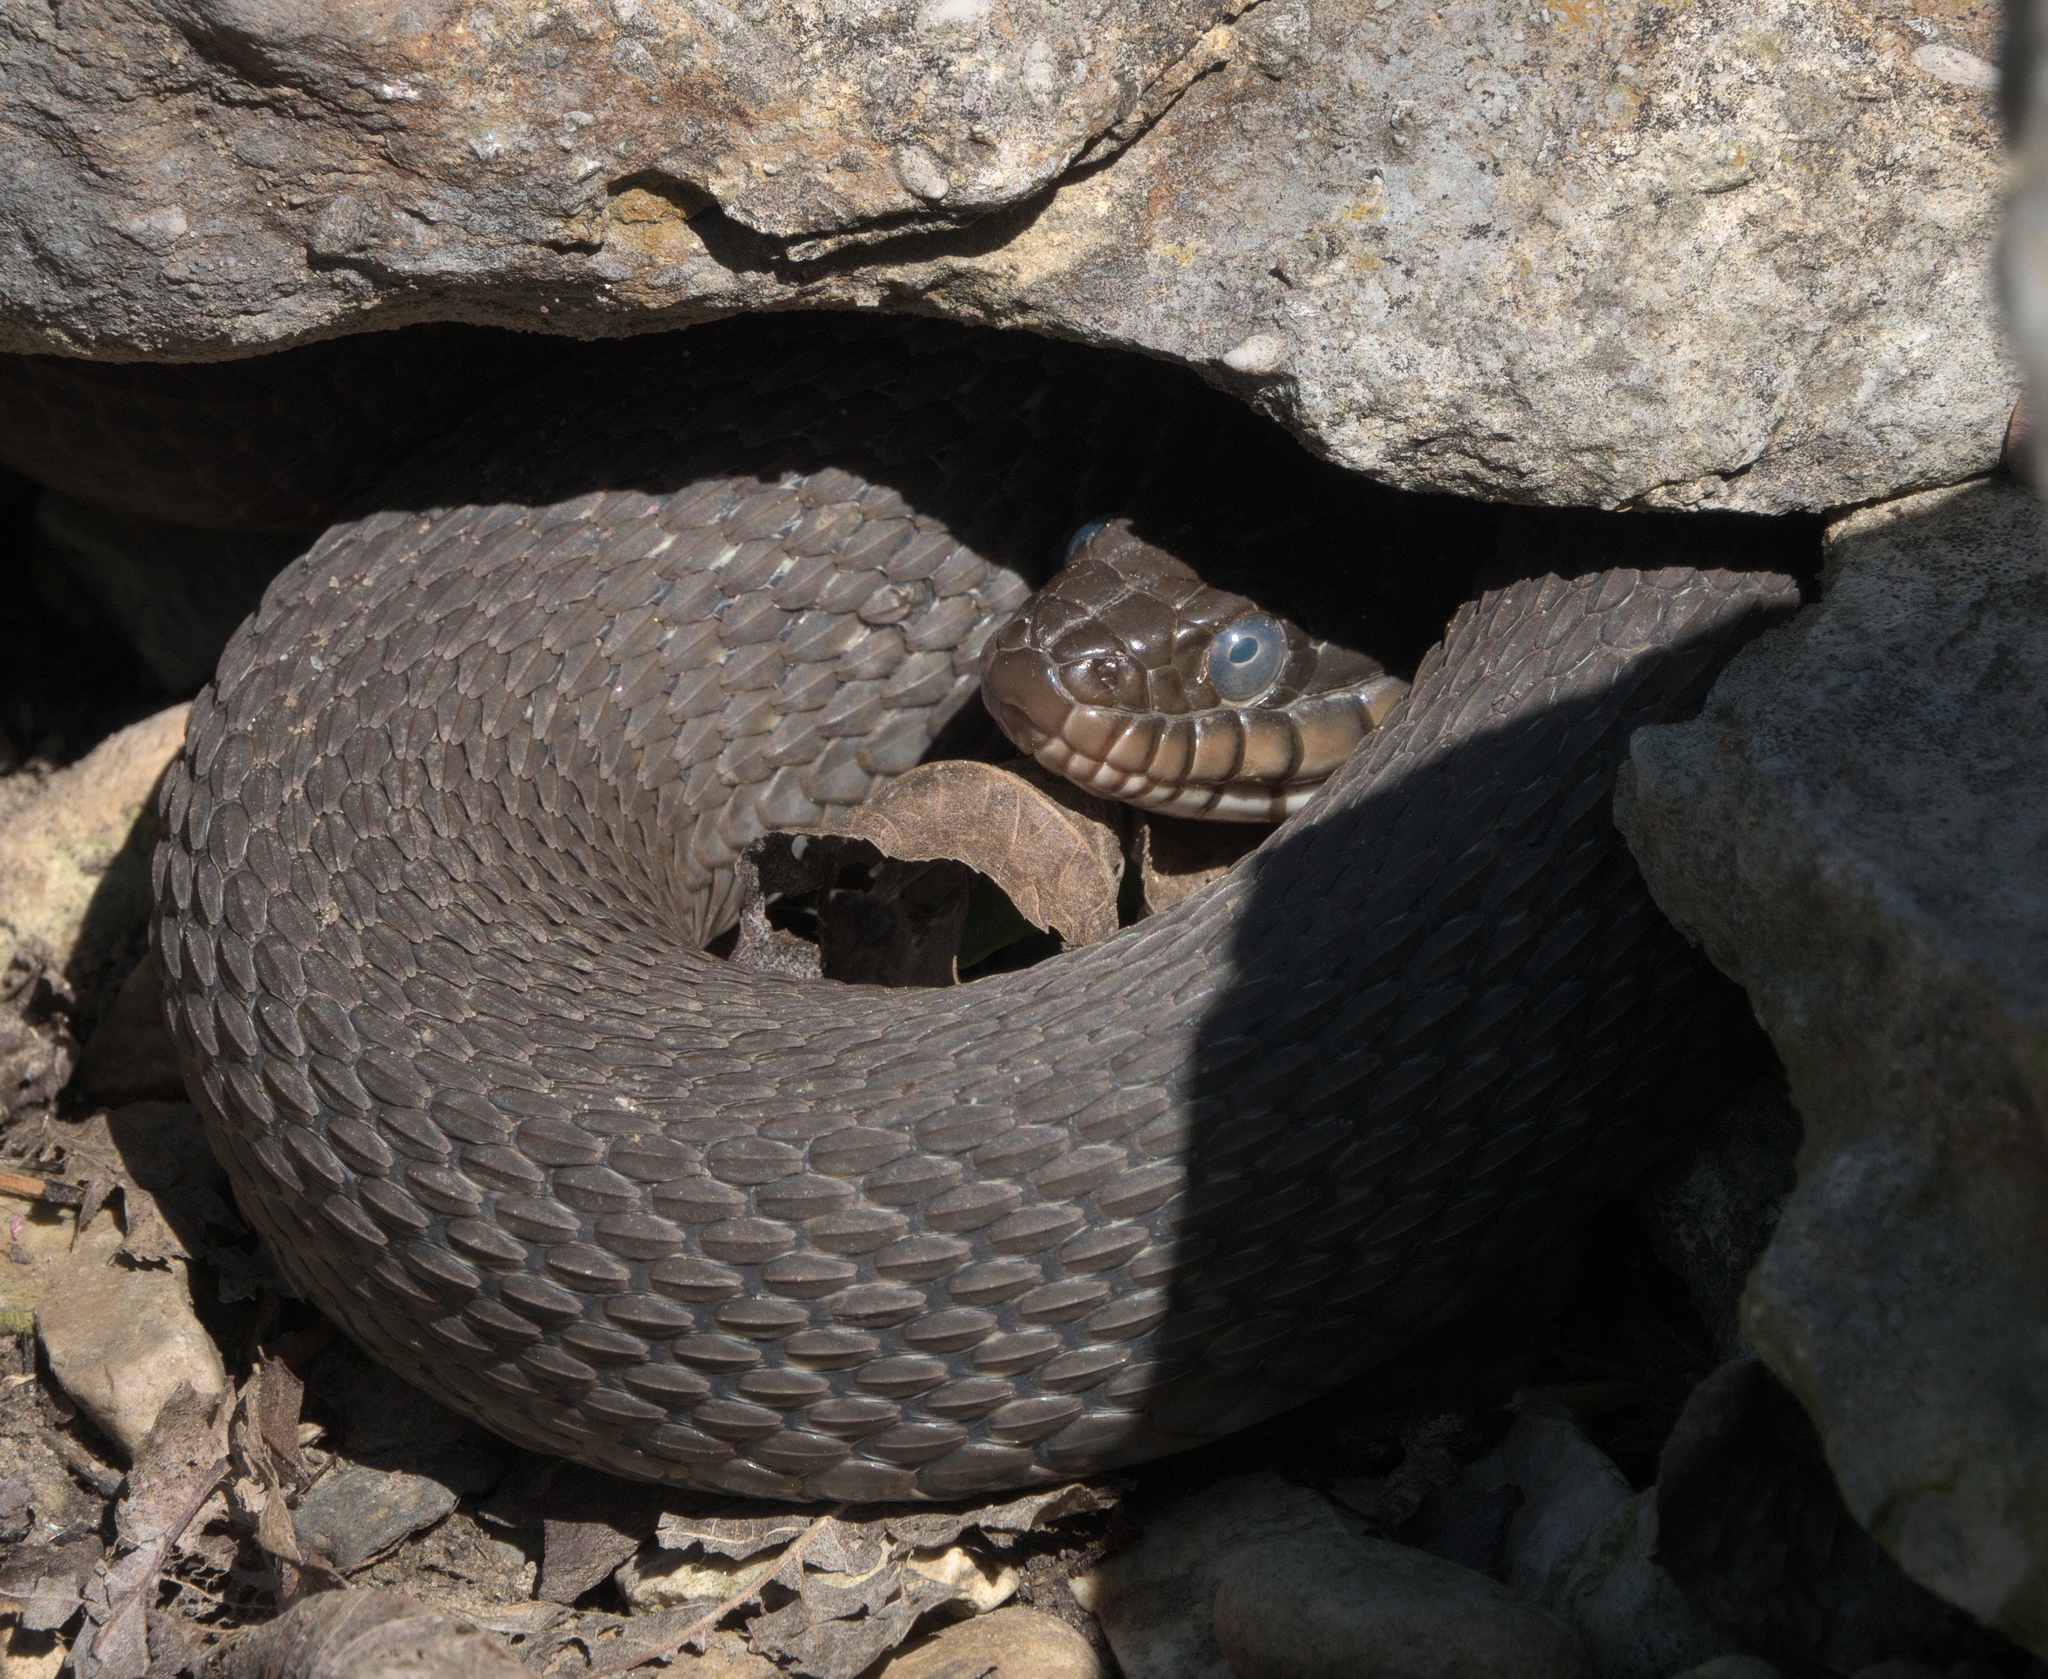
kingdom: Animalia
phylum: Chordata
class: Squamata
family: Colubridae
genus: Nerodia
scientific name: Nerodia erythrogaster
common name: Plainbelly water snake
